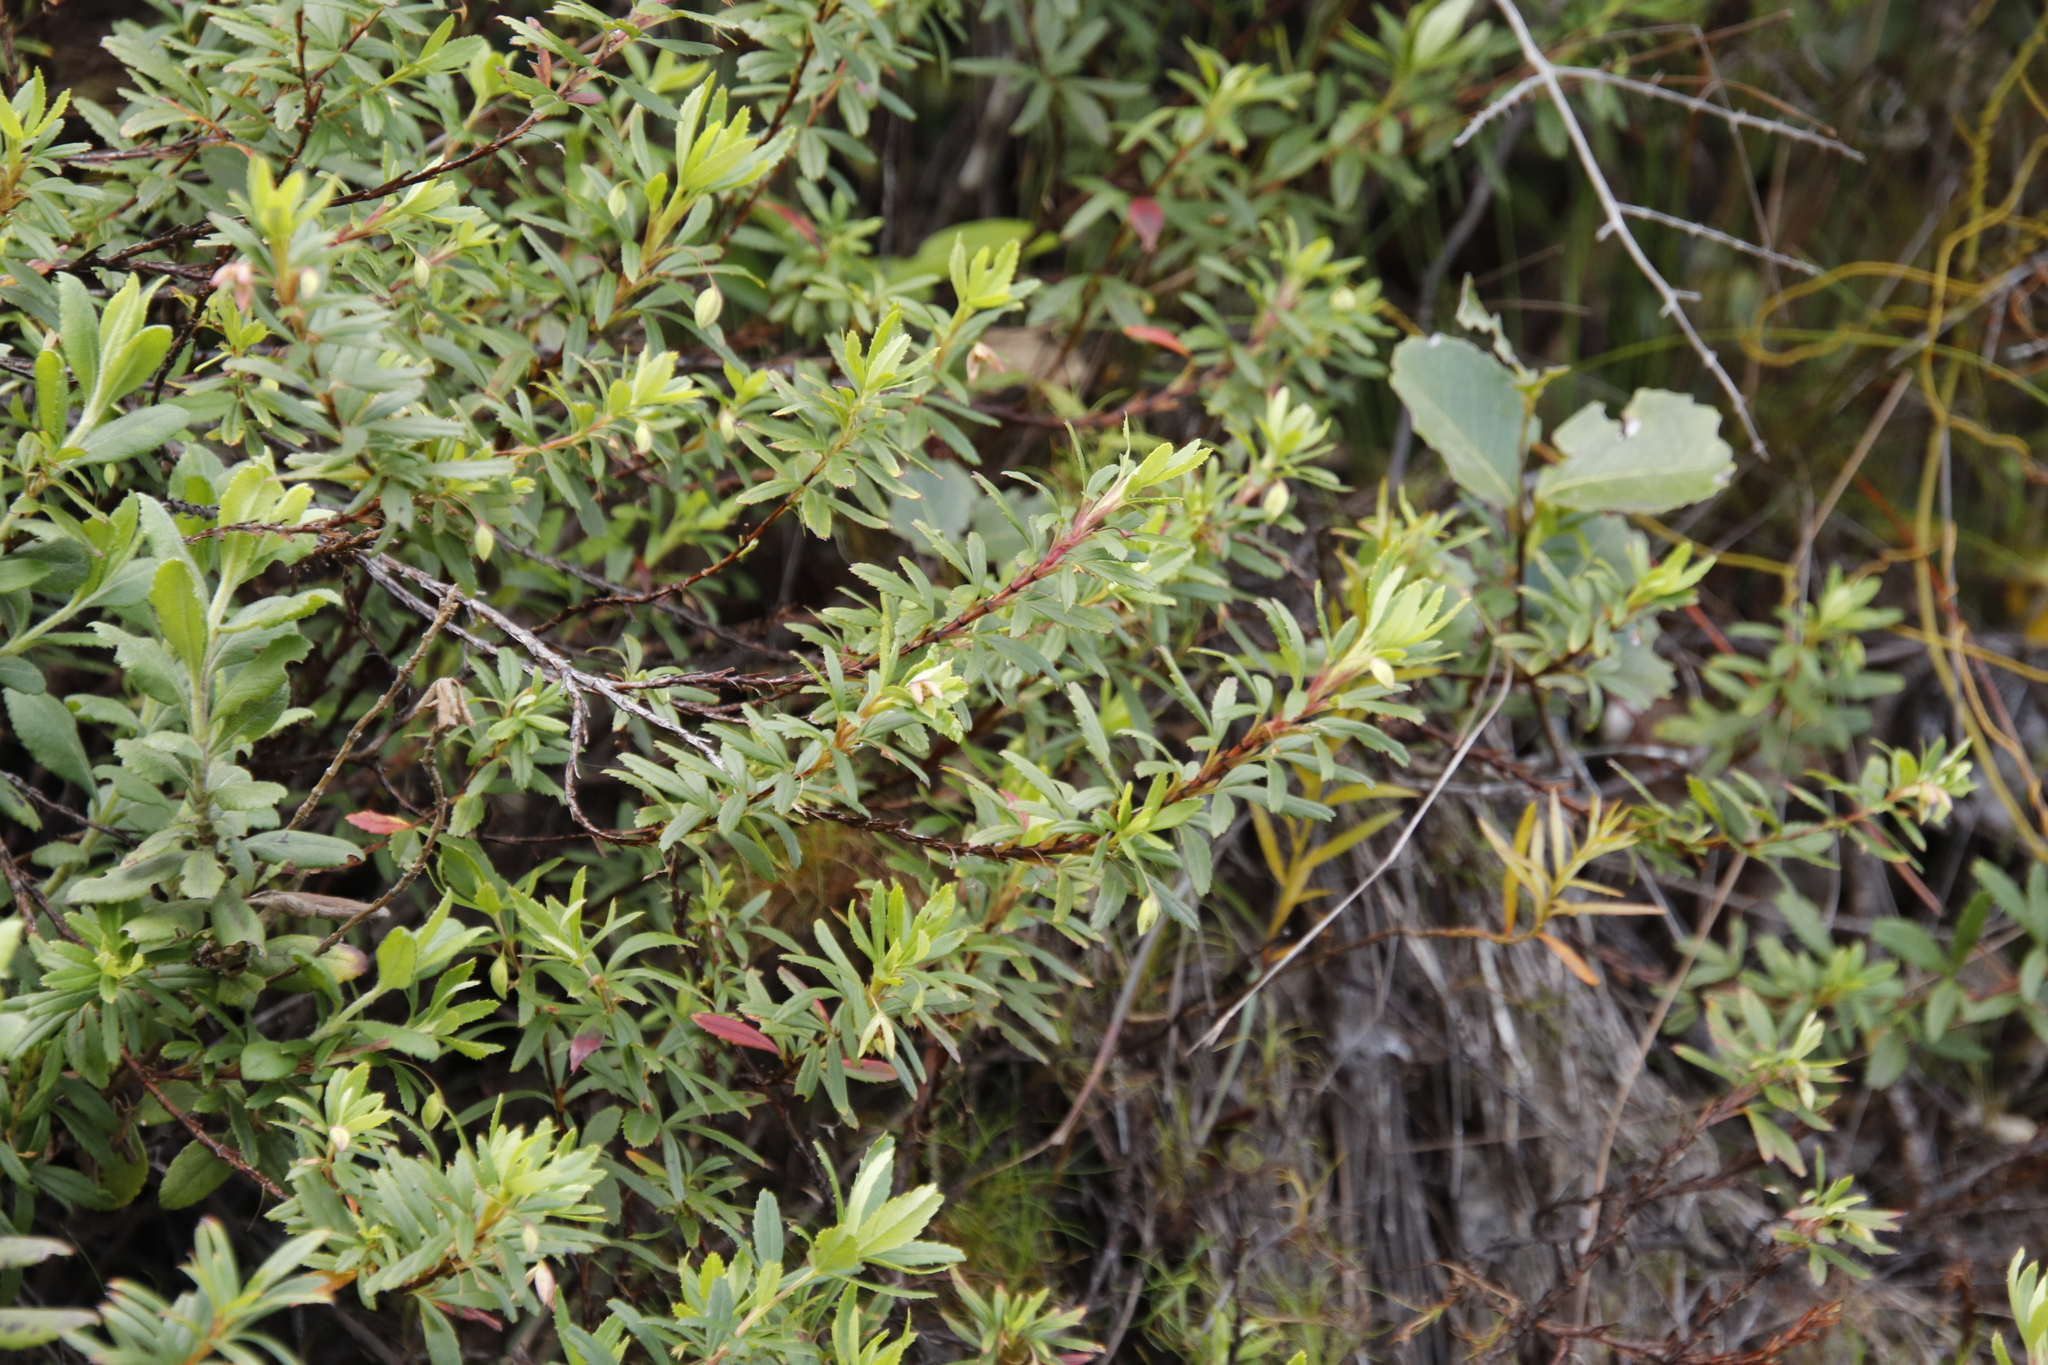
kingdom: Plantae
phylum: Tracheophyta
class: Magnoliopsida
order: Rosales
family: Rosaceae
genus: Cliffortia
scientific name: Cliffortia pedunculata
